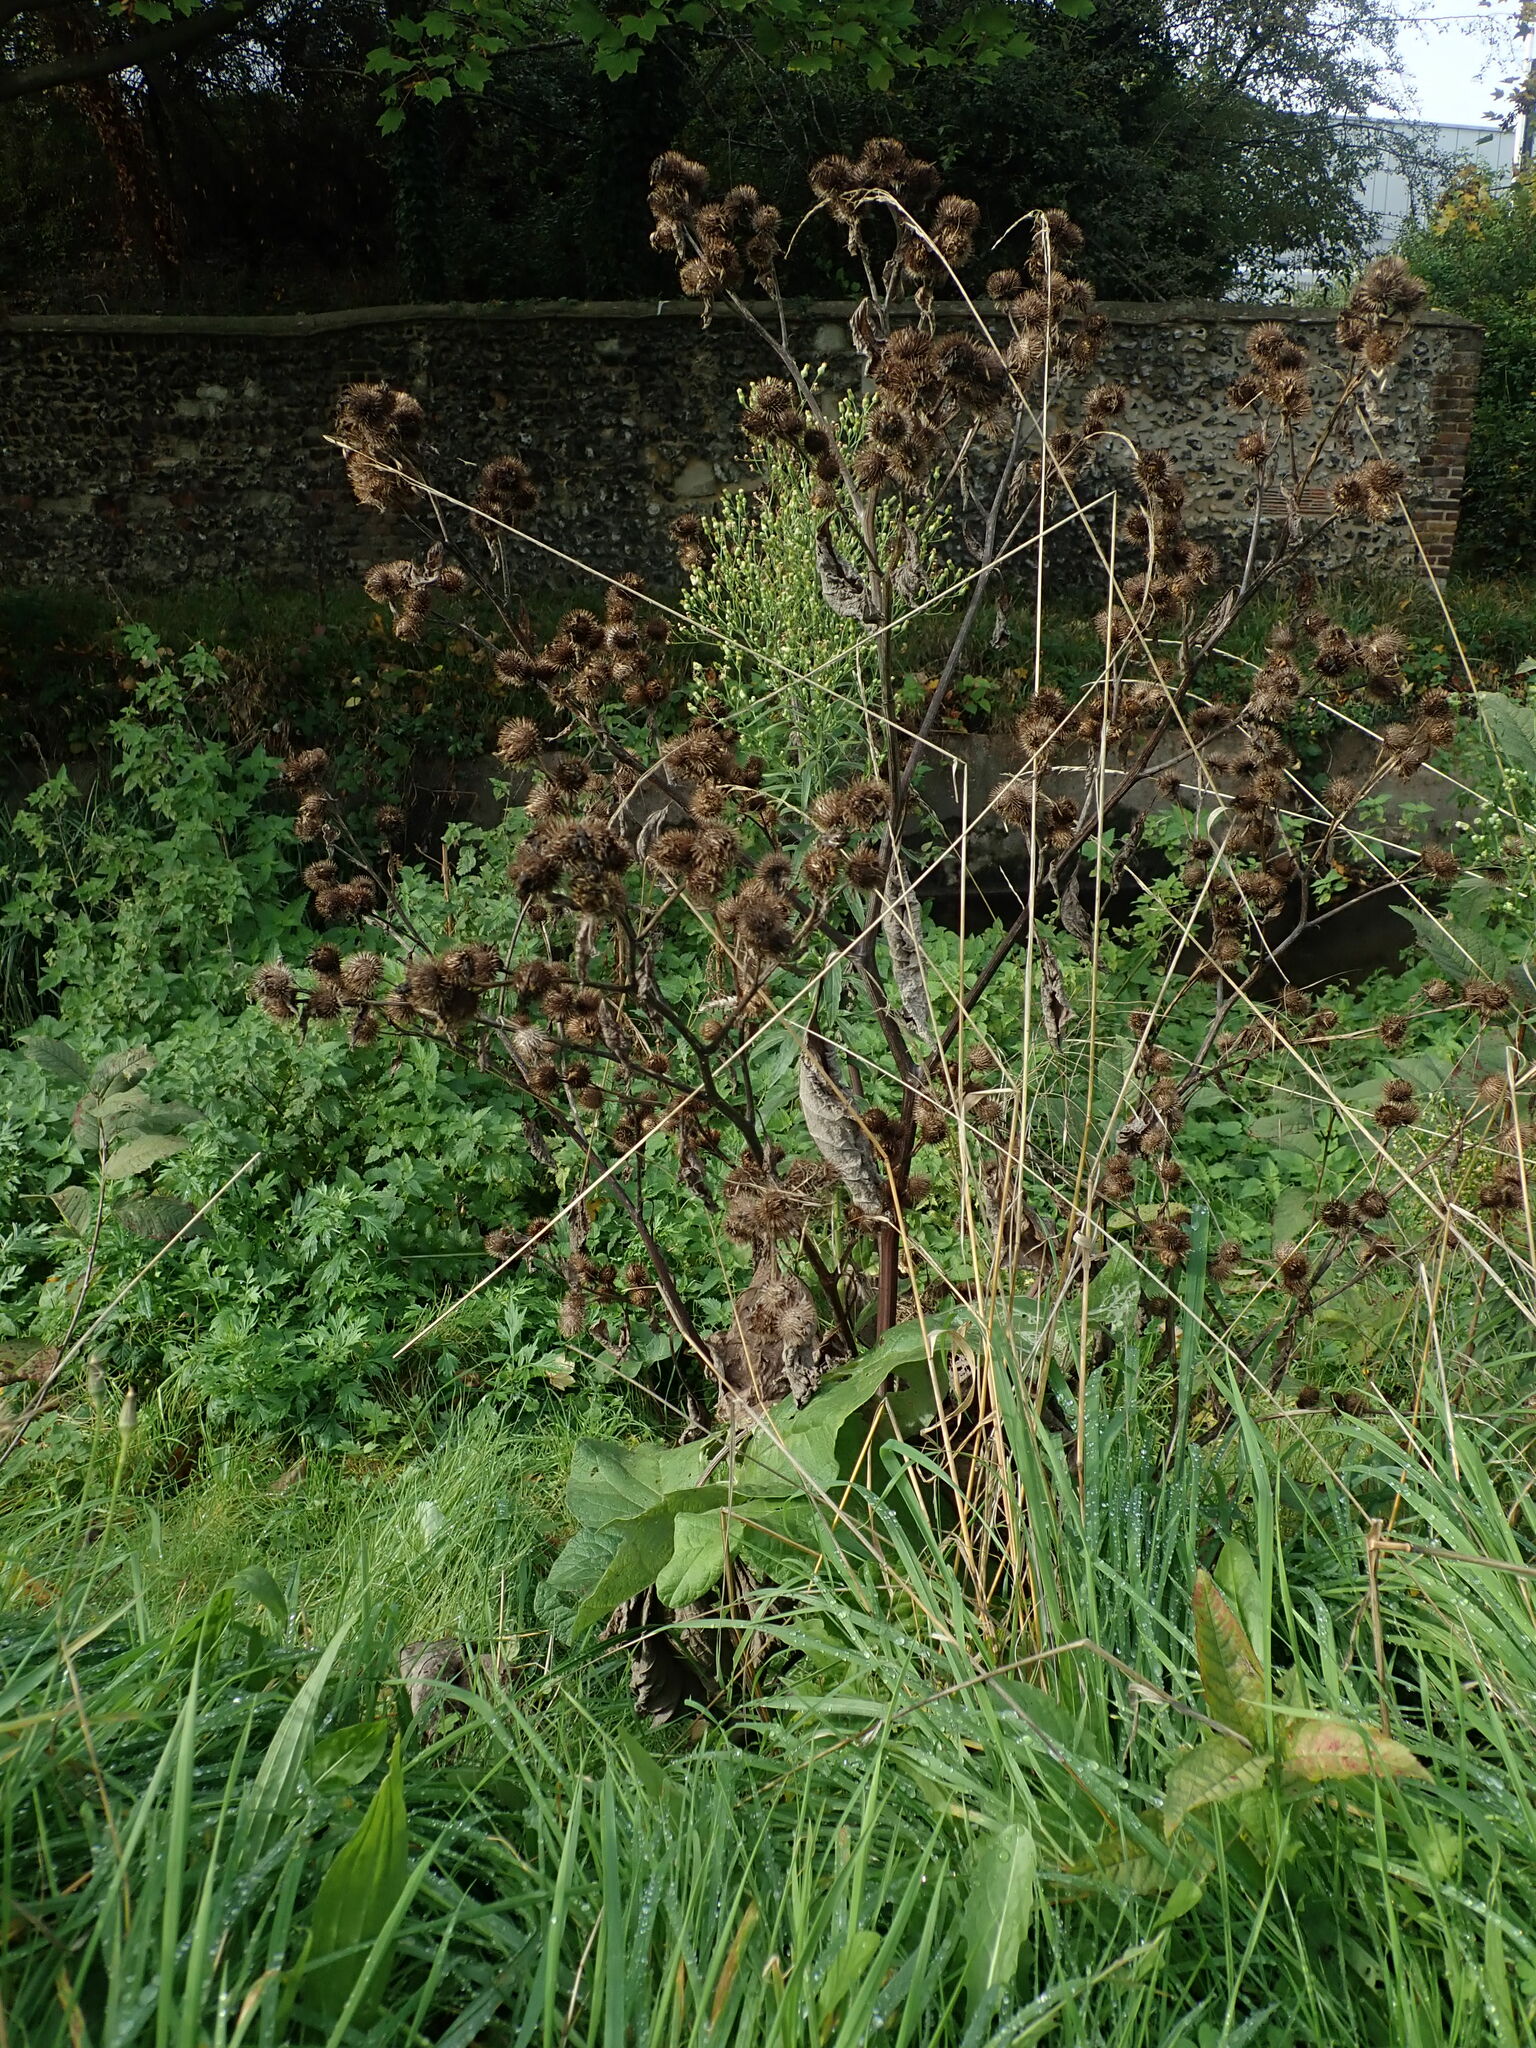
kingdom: Plantae
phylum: Tracheophyta
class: Magnoliopsida
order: Asterales
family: Asteraceae
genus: Arctium
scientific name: Arctium minus
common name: Lesser burdock
